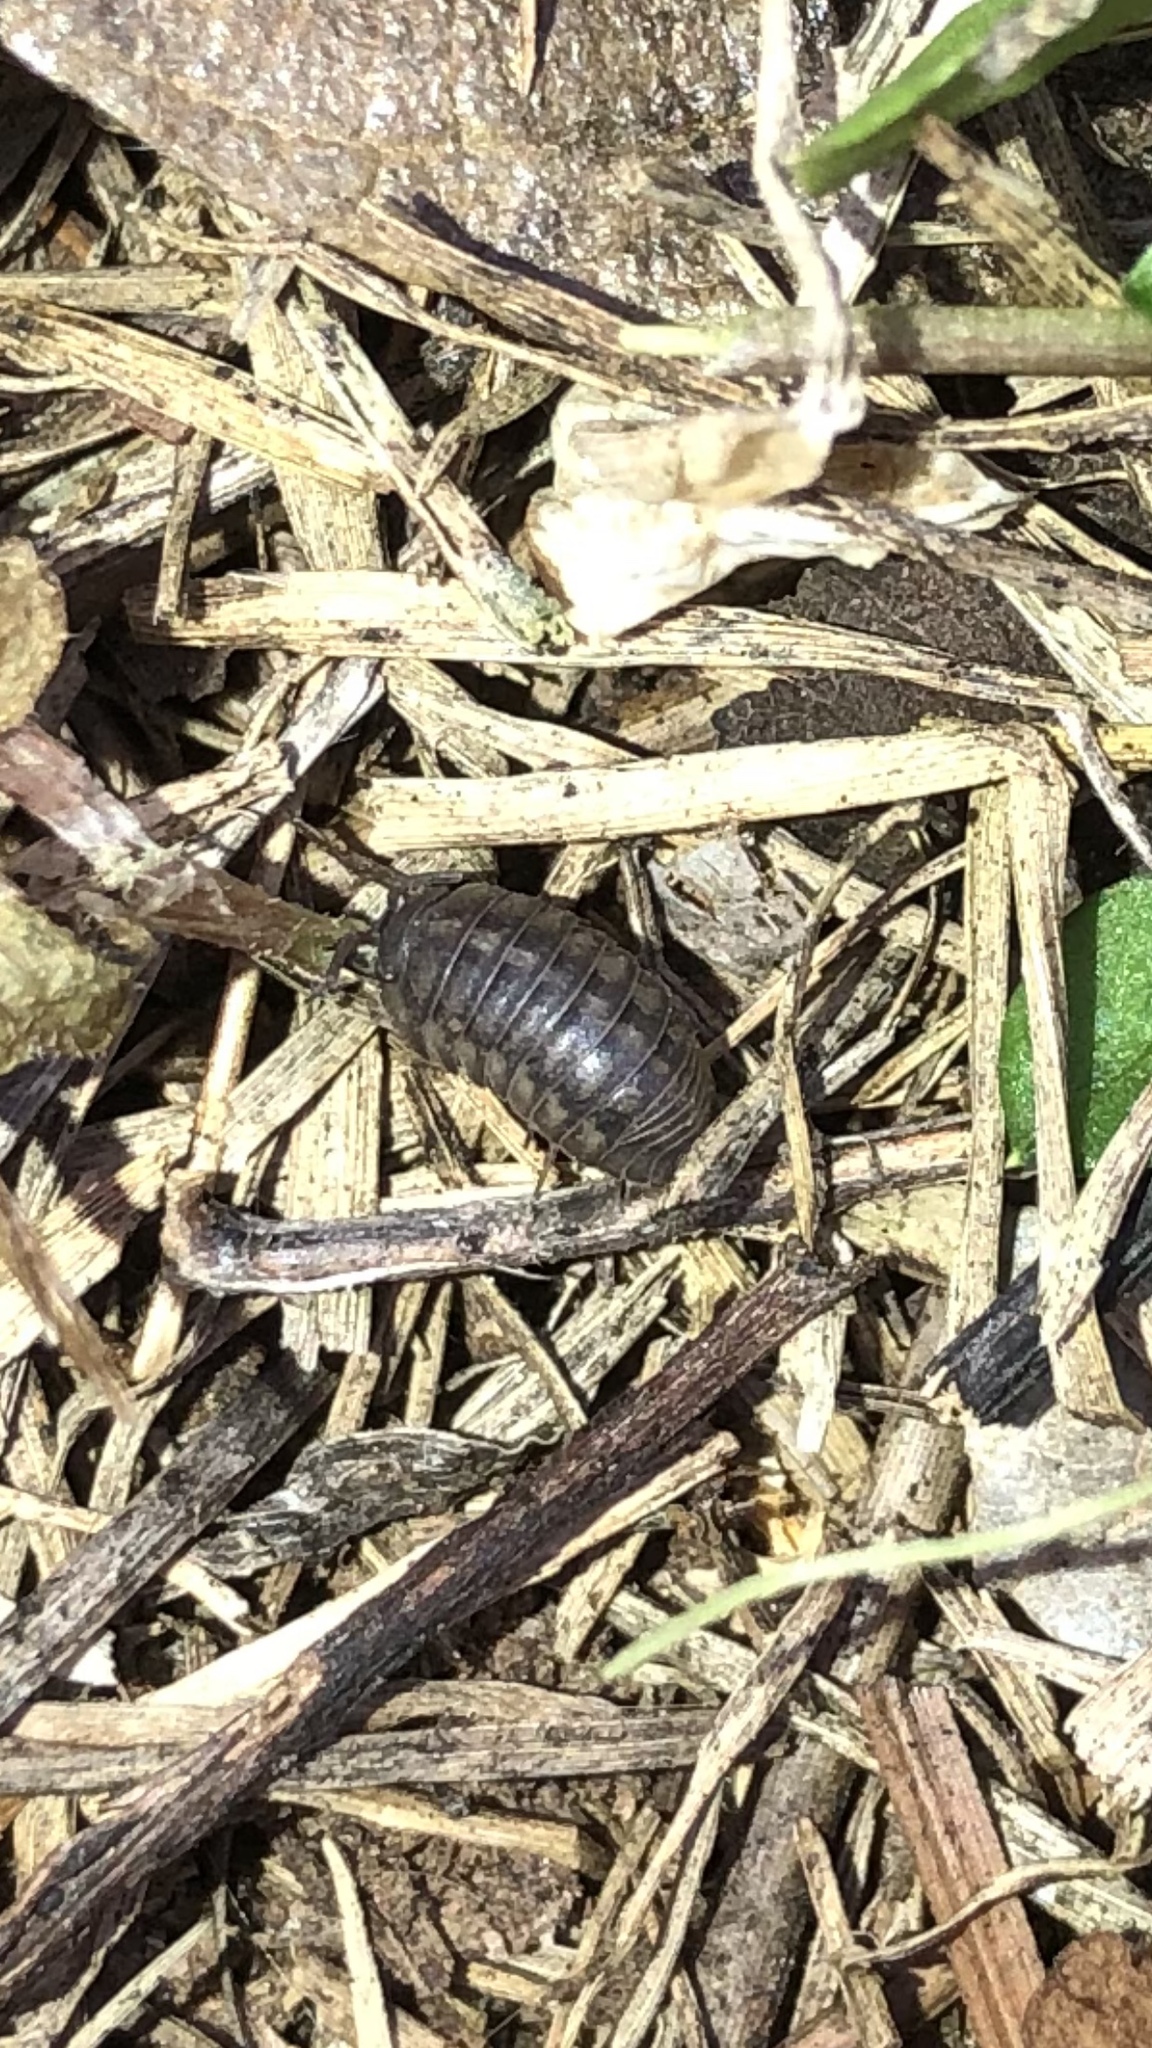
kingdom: Animalia
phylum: Arthropoda
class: Malacostraca
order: Isopoda
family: Armadillidiidae
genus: Armadillidium
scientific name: Armadillidium nasatum
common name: Isopod
